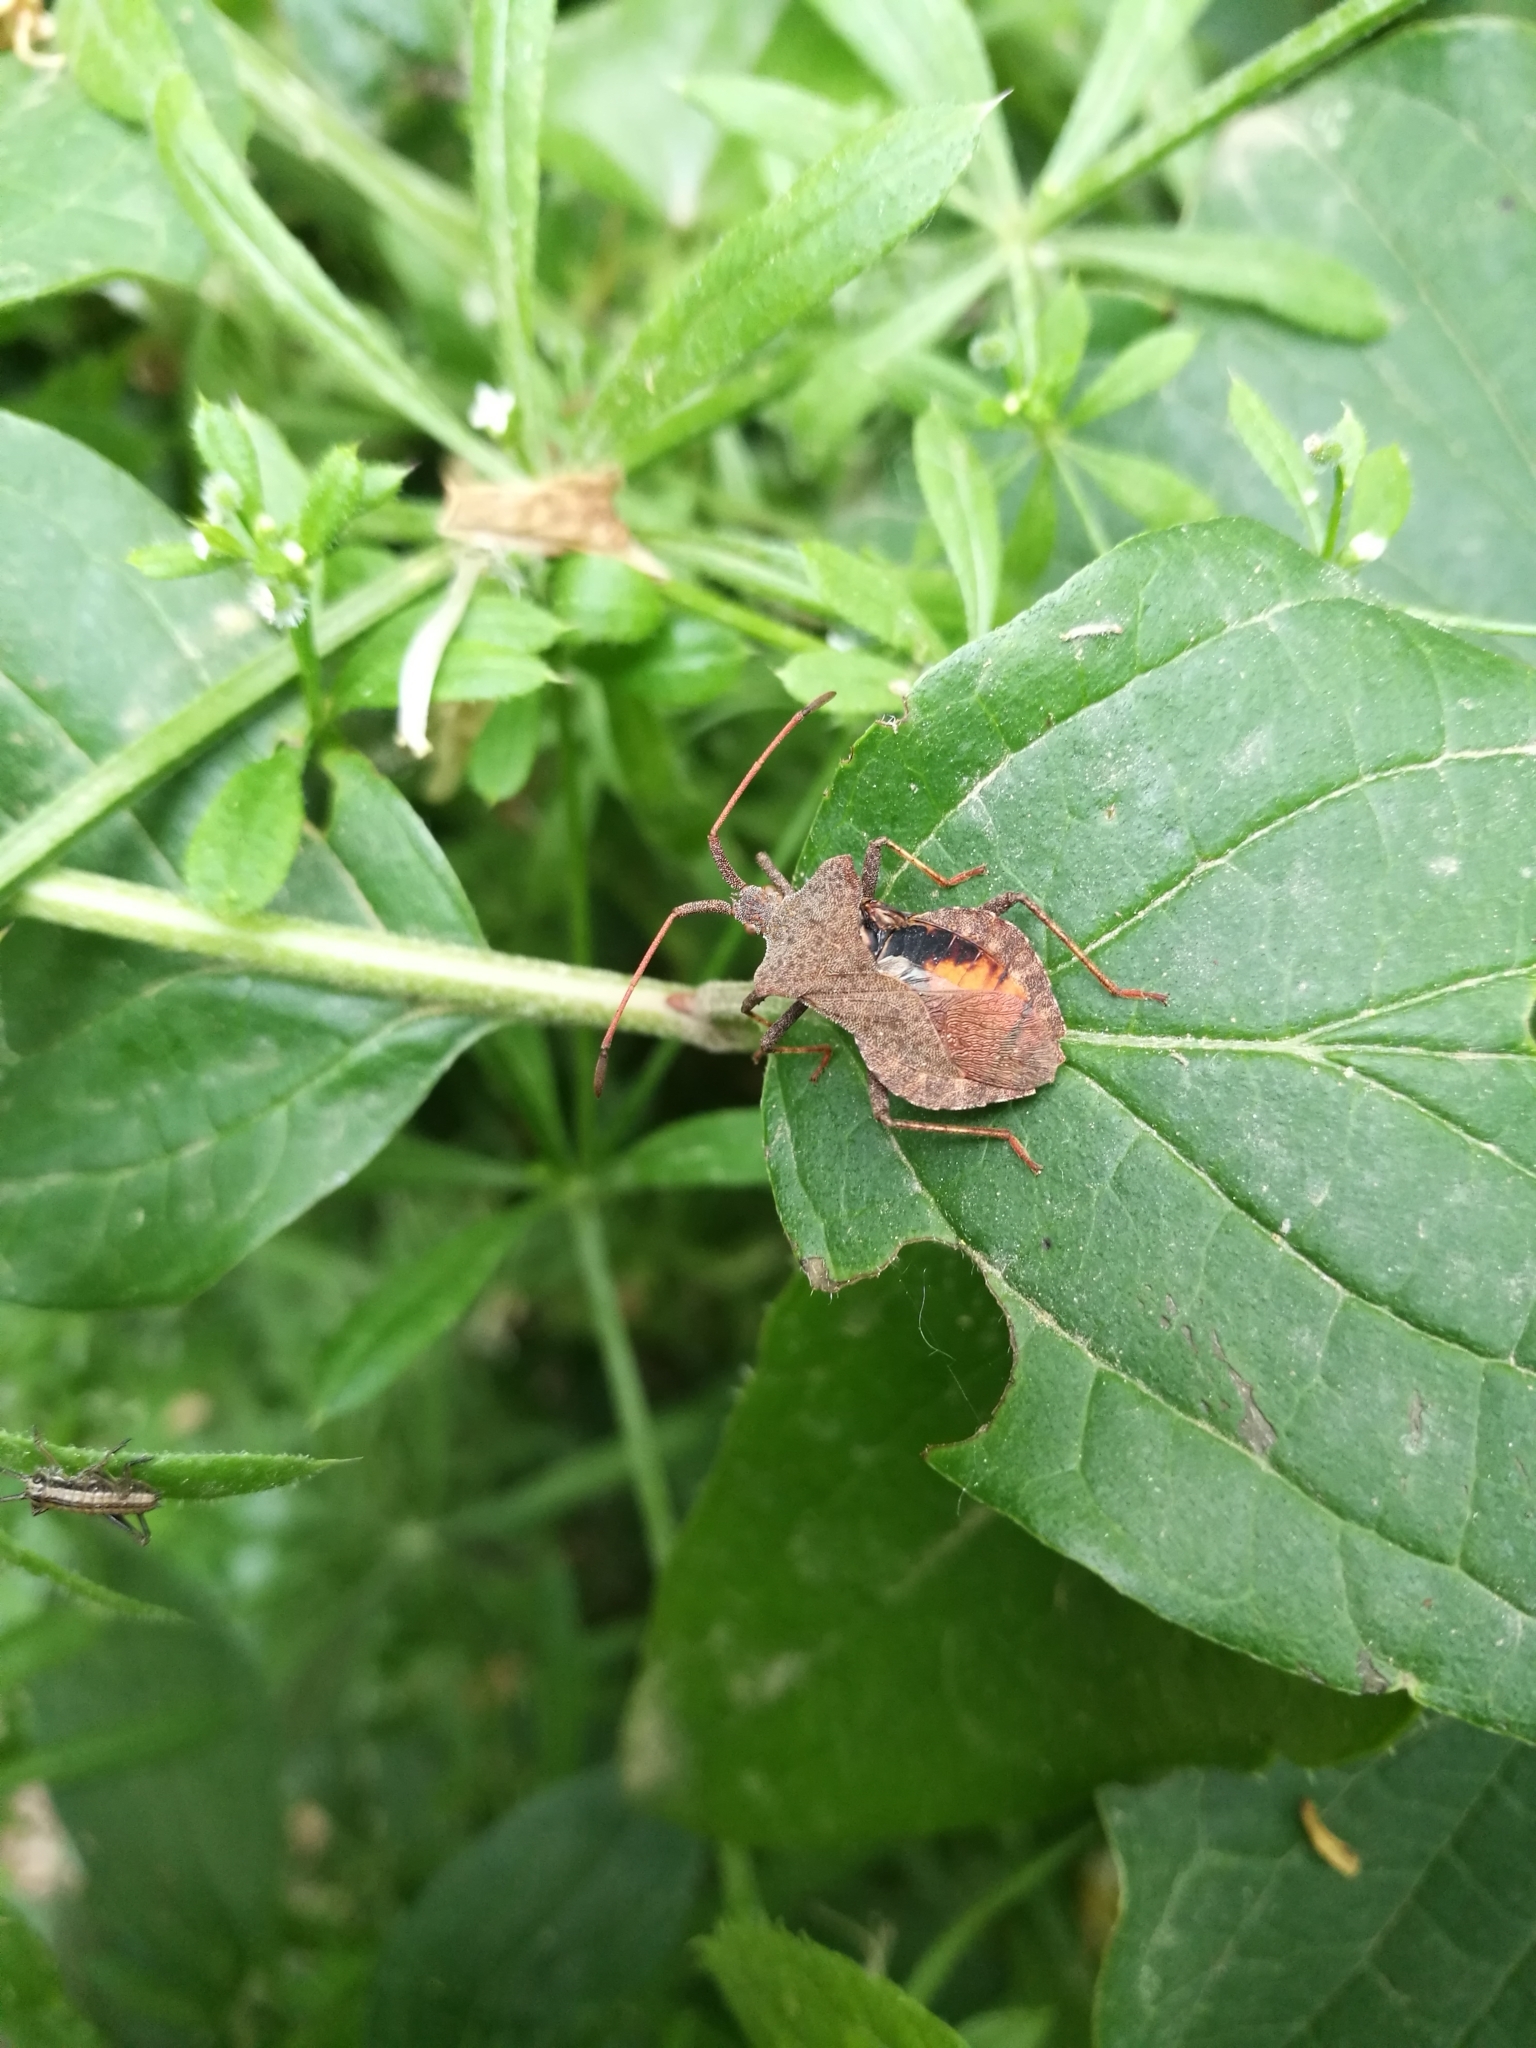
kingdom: Animalia
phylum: Arthropoda
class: Insecta
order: Hemiptera
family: Coreidae
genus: Coreus
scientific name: Coreus marginatus
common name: Dock bug
